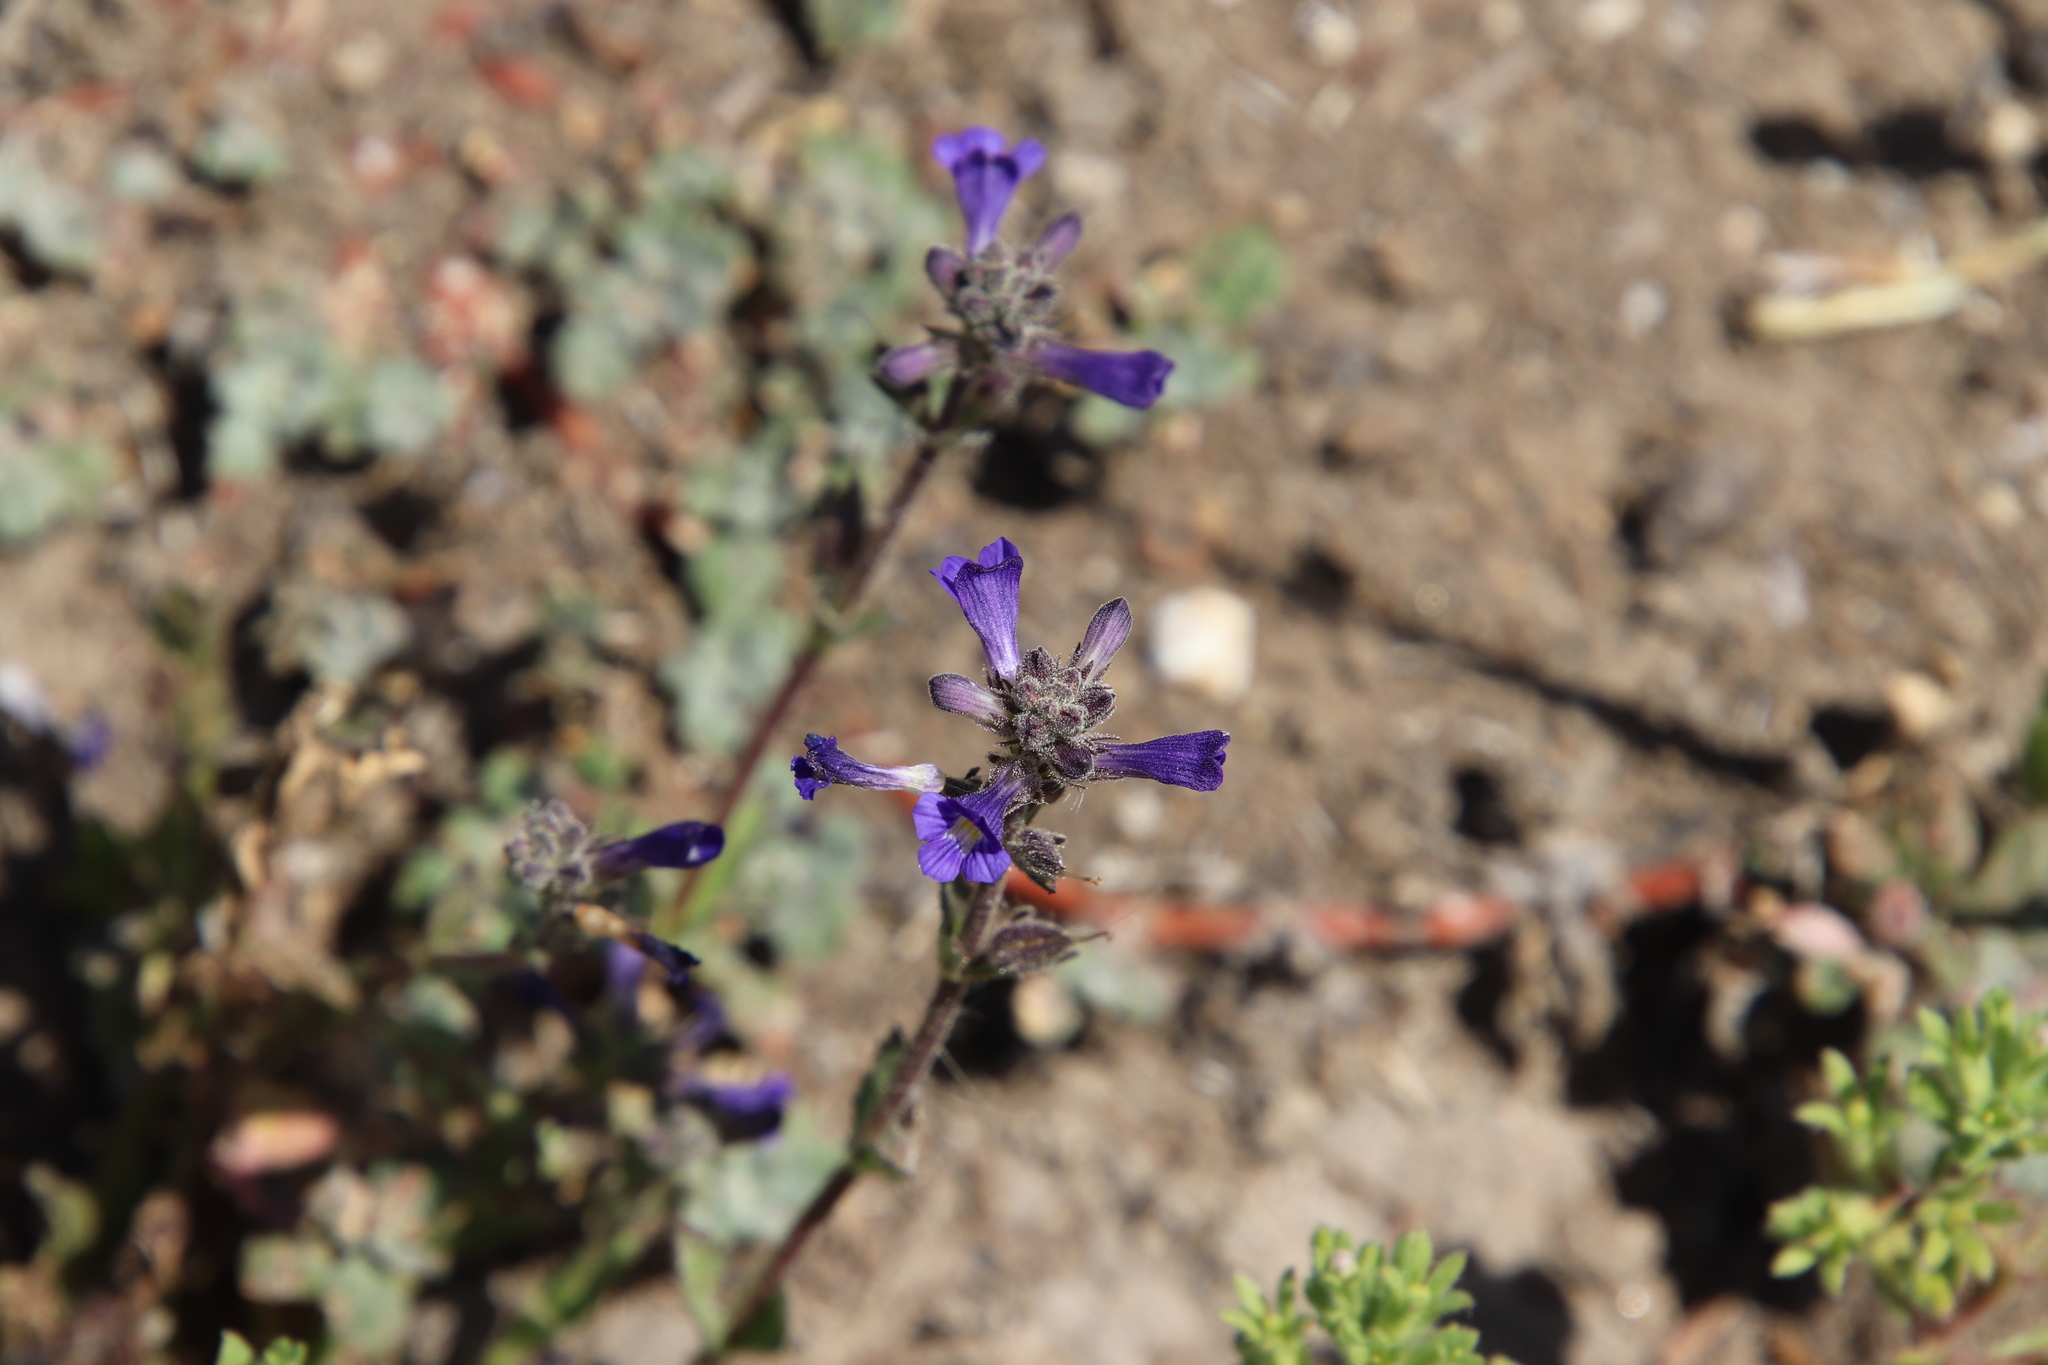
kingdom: Plantae
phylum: Tracheophyta
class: Magnoliopsida
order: Lamiales
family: Plantaginaceae
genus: Stemodia
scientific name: Stemodia durantifolia
